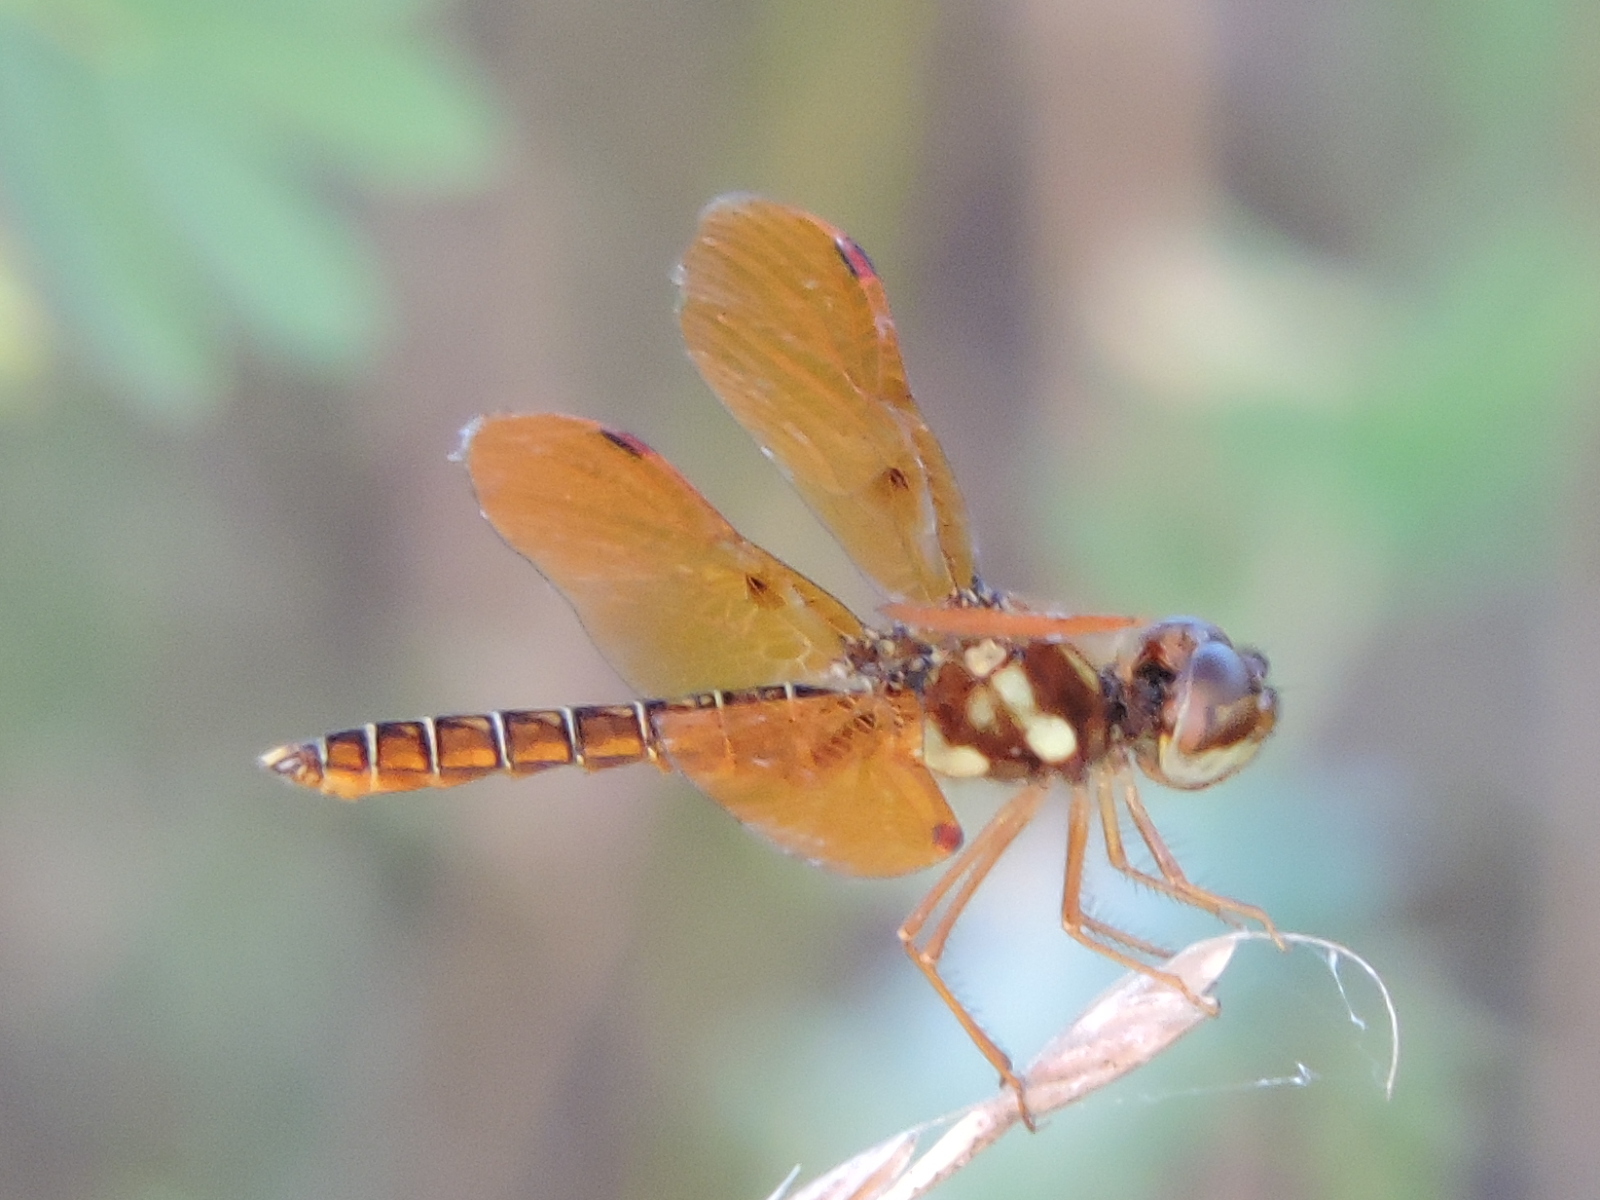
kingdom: Animalia
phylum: Arthropoda
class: Insecta
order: Odonata
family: Libellulidae
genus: Perithemis
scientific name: Perithemis tenera
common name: Eastern amberwing
